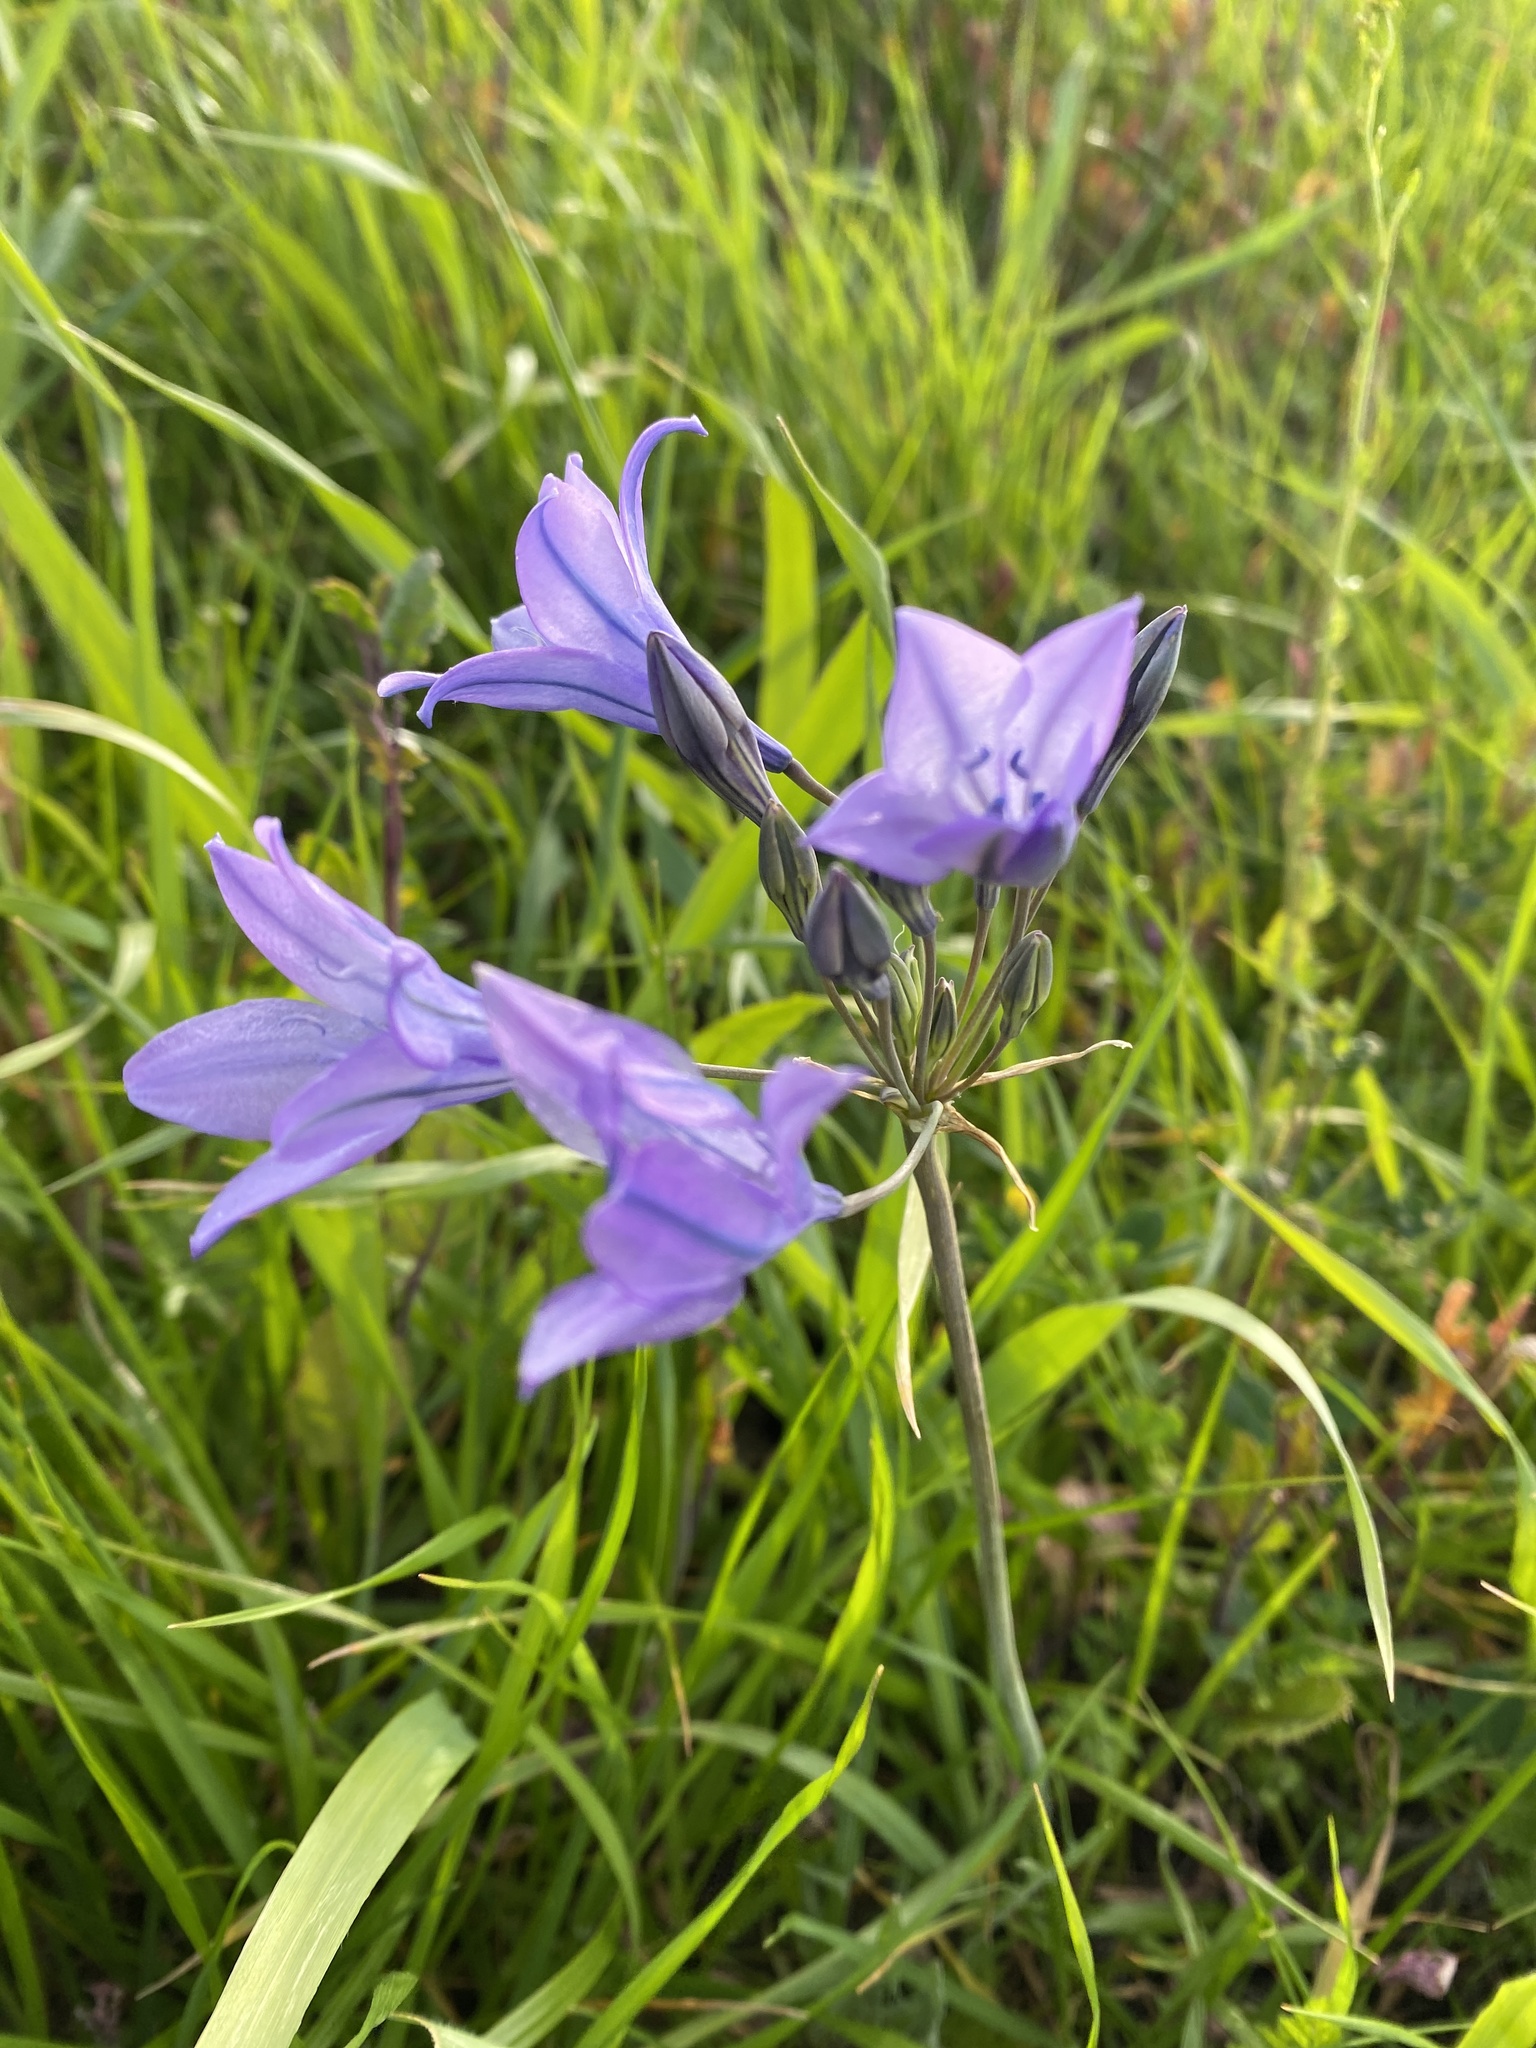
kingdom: Plantae
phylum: Tracheophyta
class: Liliopsida
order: Asparagales
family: Asparagaceae
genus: Triteleia
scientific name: Triteleia laxa
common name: Triplet-lily
